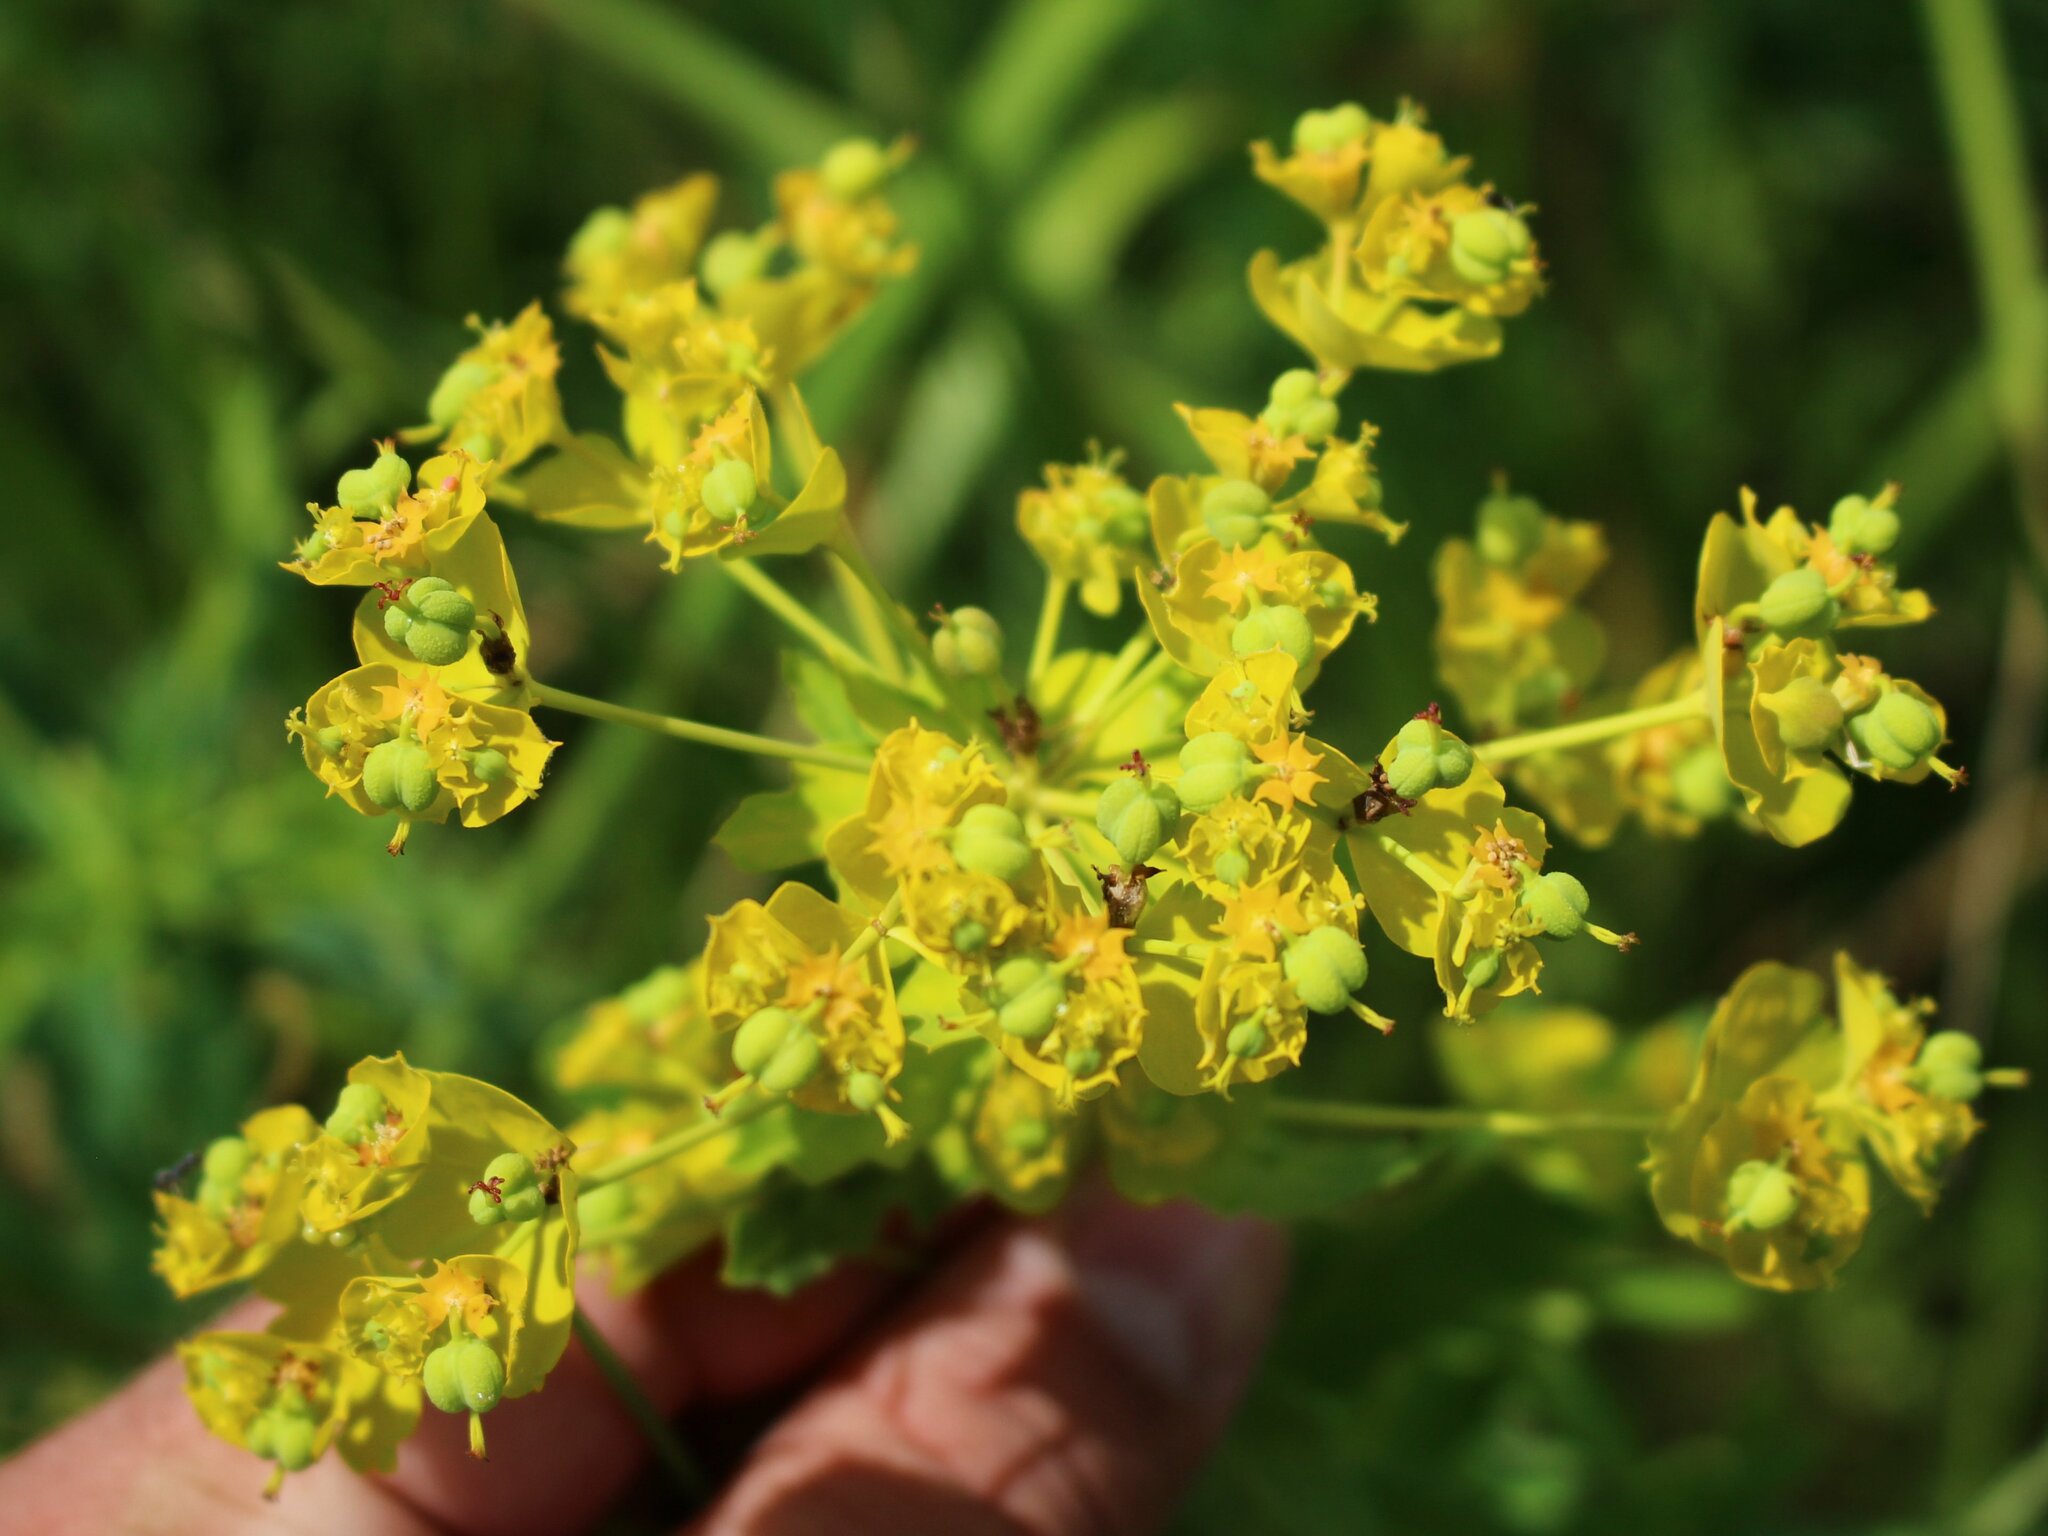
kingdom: Plantae
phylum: Tracheophyta
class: Magnoliopsida
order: Malpighiales
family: Euphorbiaceae
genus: Euphorbia
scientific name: Euphorbia iberica
